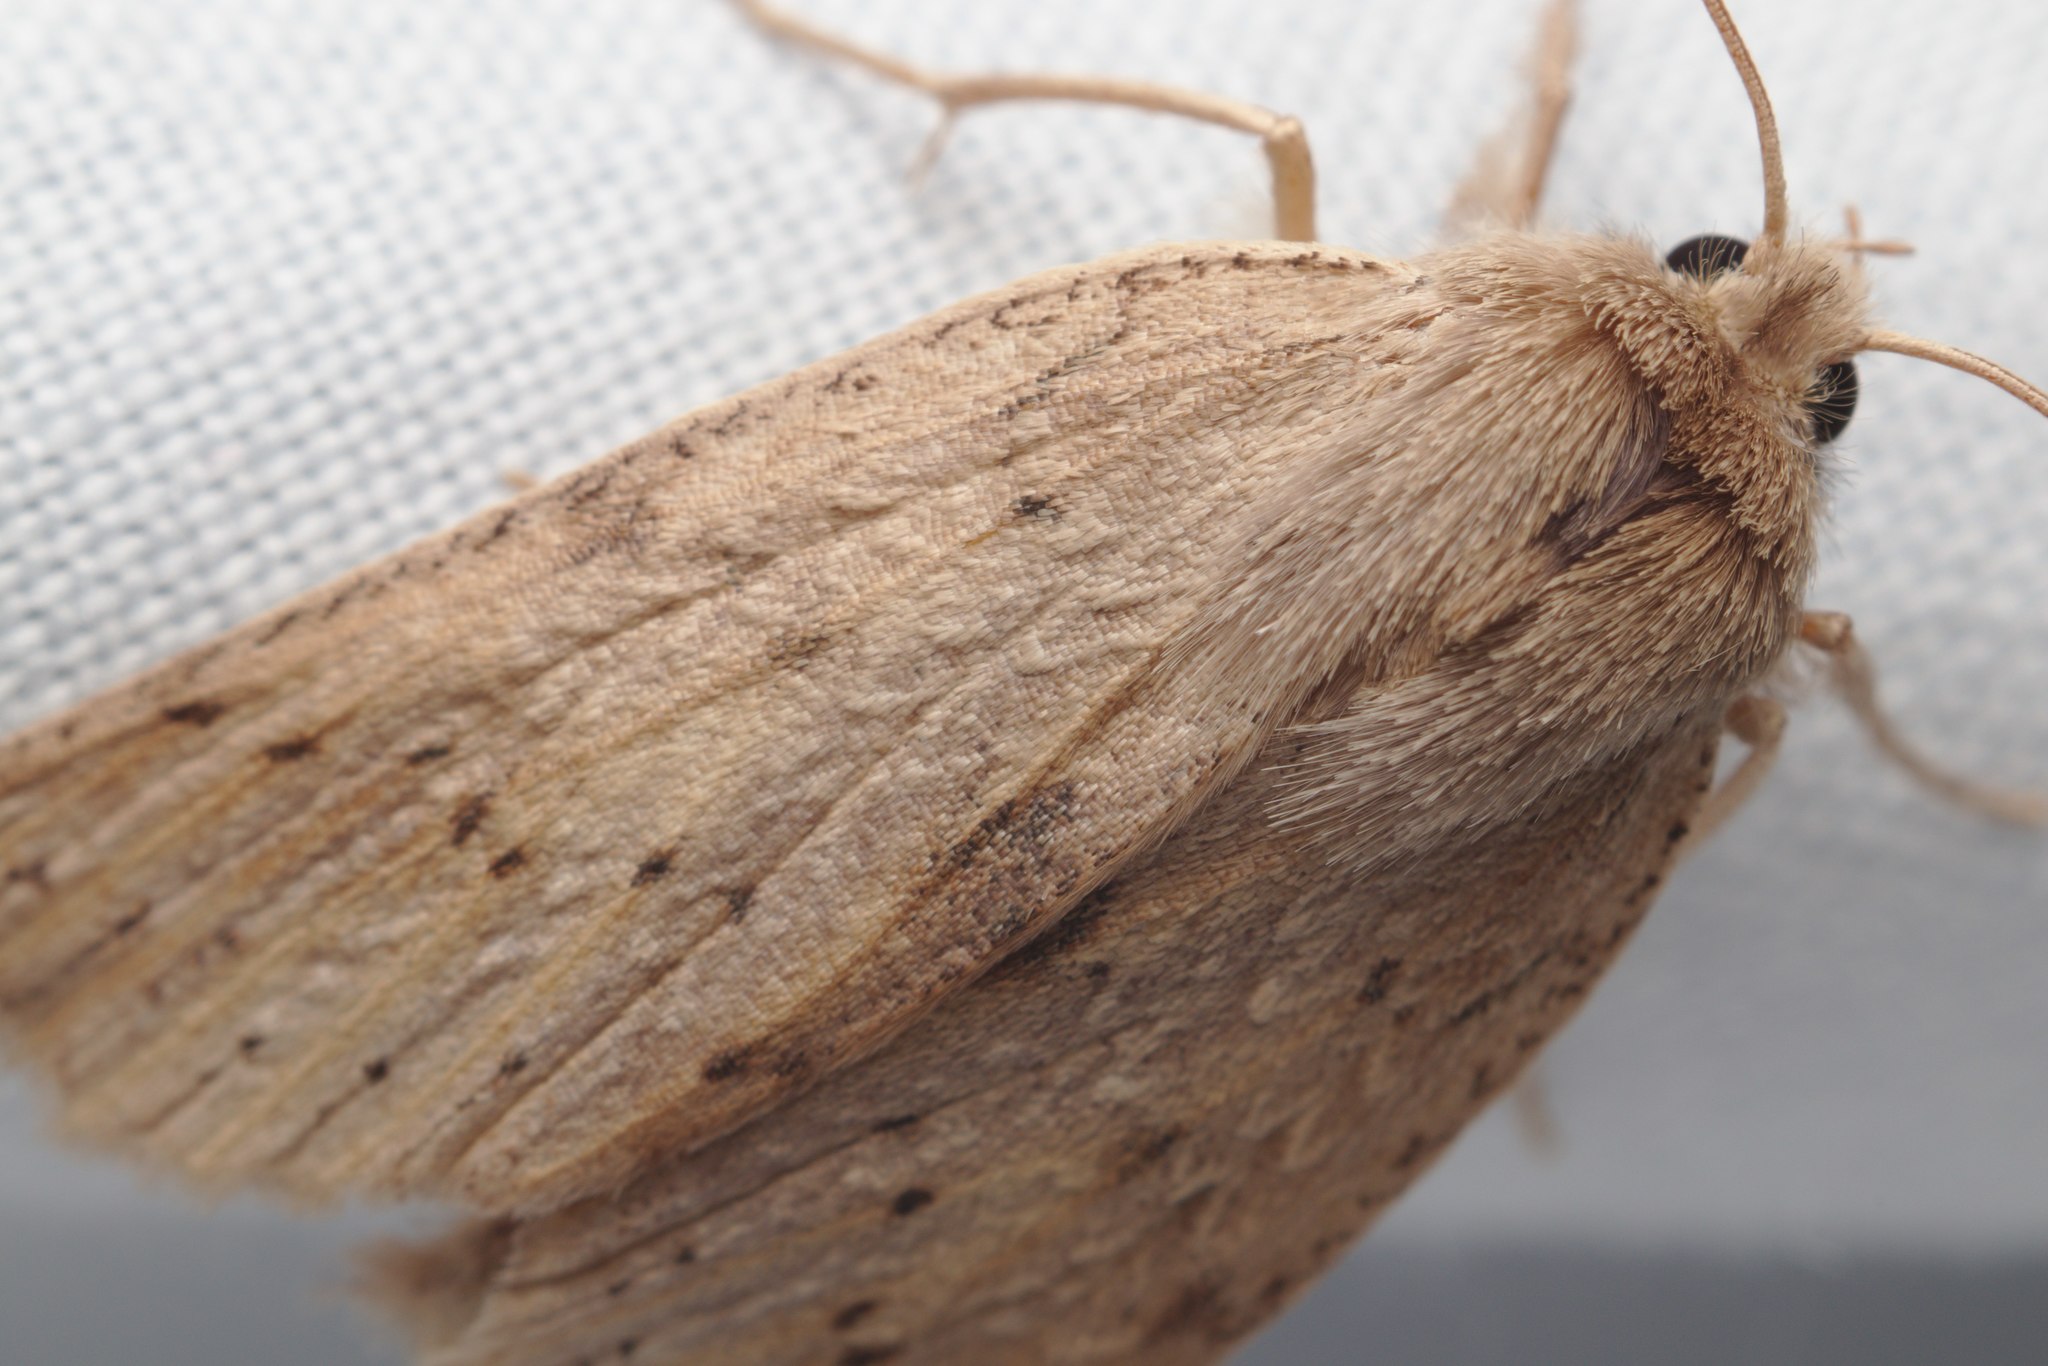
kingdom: Animalia
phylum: Arthropoda
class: Insecta
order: Lepidoptera
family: Geometridae
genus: Declana
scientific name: Declana leptomera
